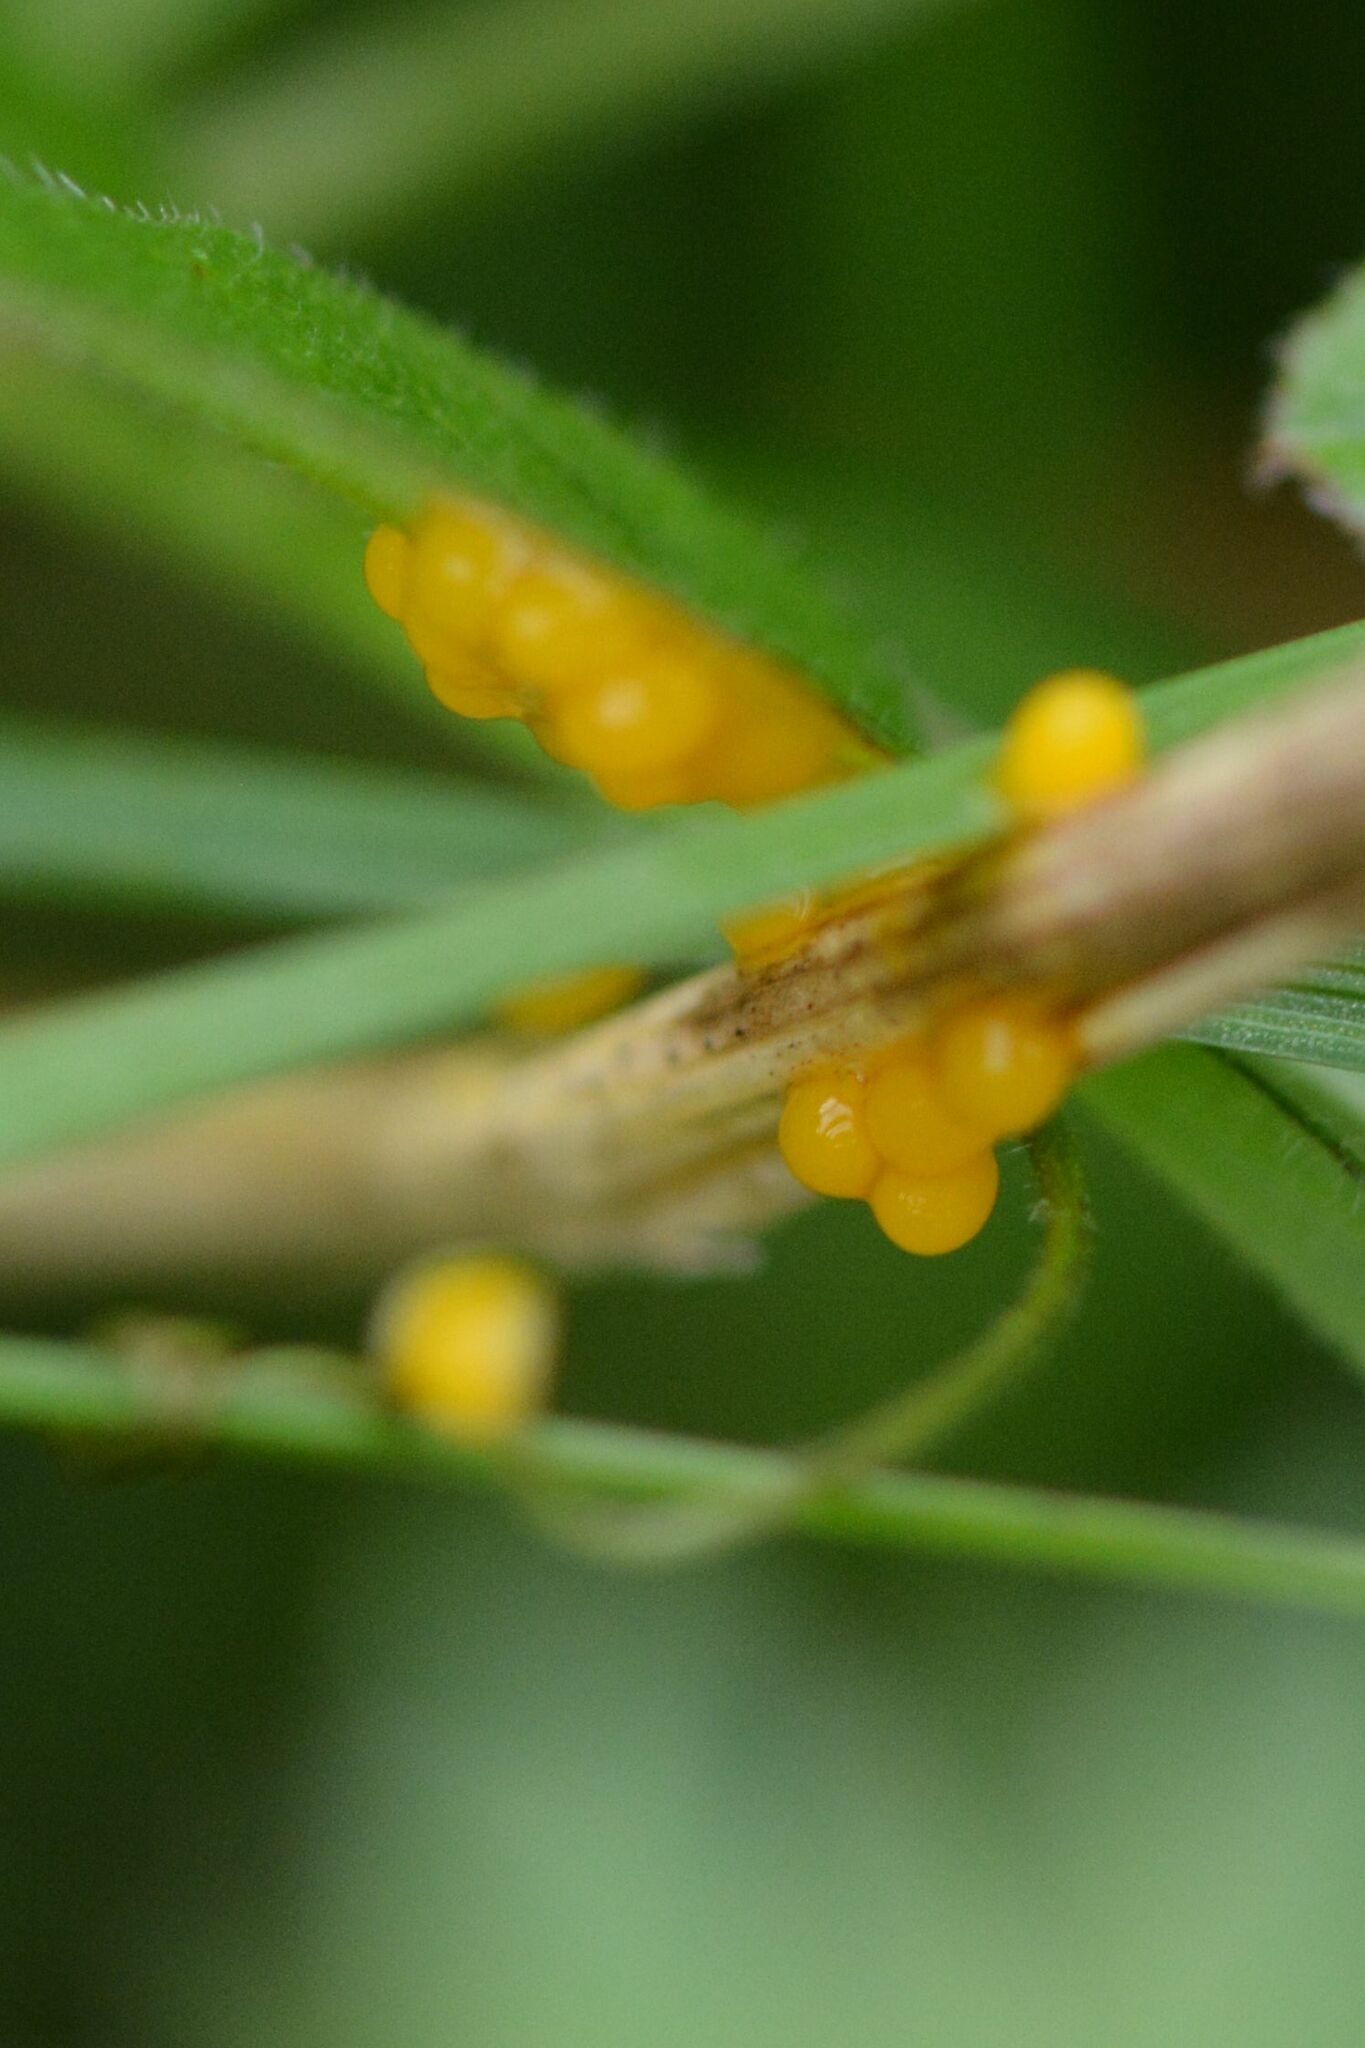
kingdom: Animalia
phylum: Arthropoda
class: Insecta
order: Coleoptera
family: Chrysomelidae
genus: Galeruca
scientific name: Galeruca tanaceti
